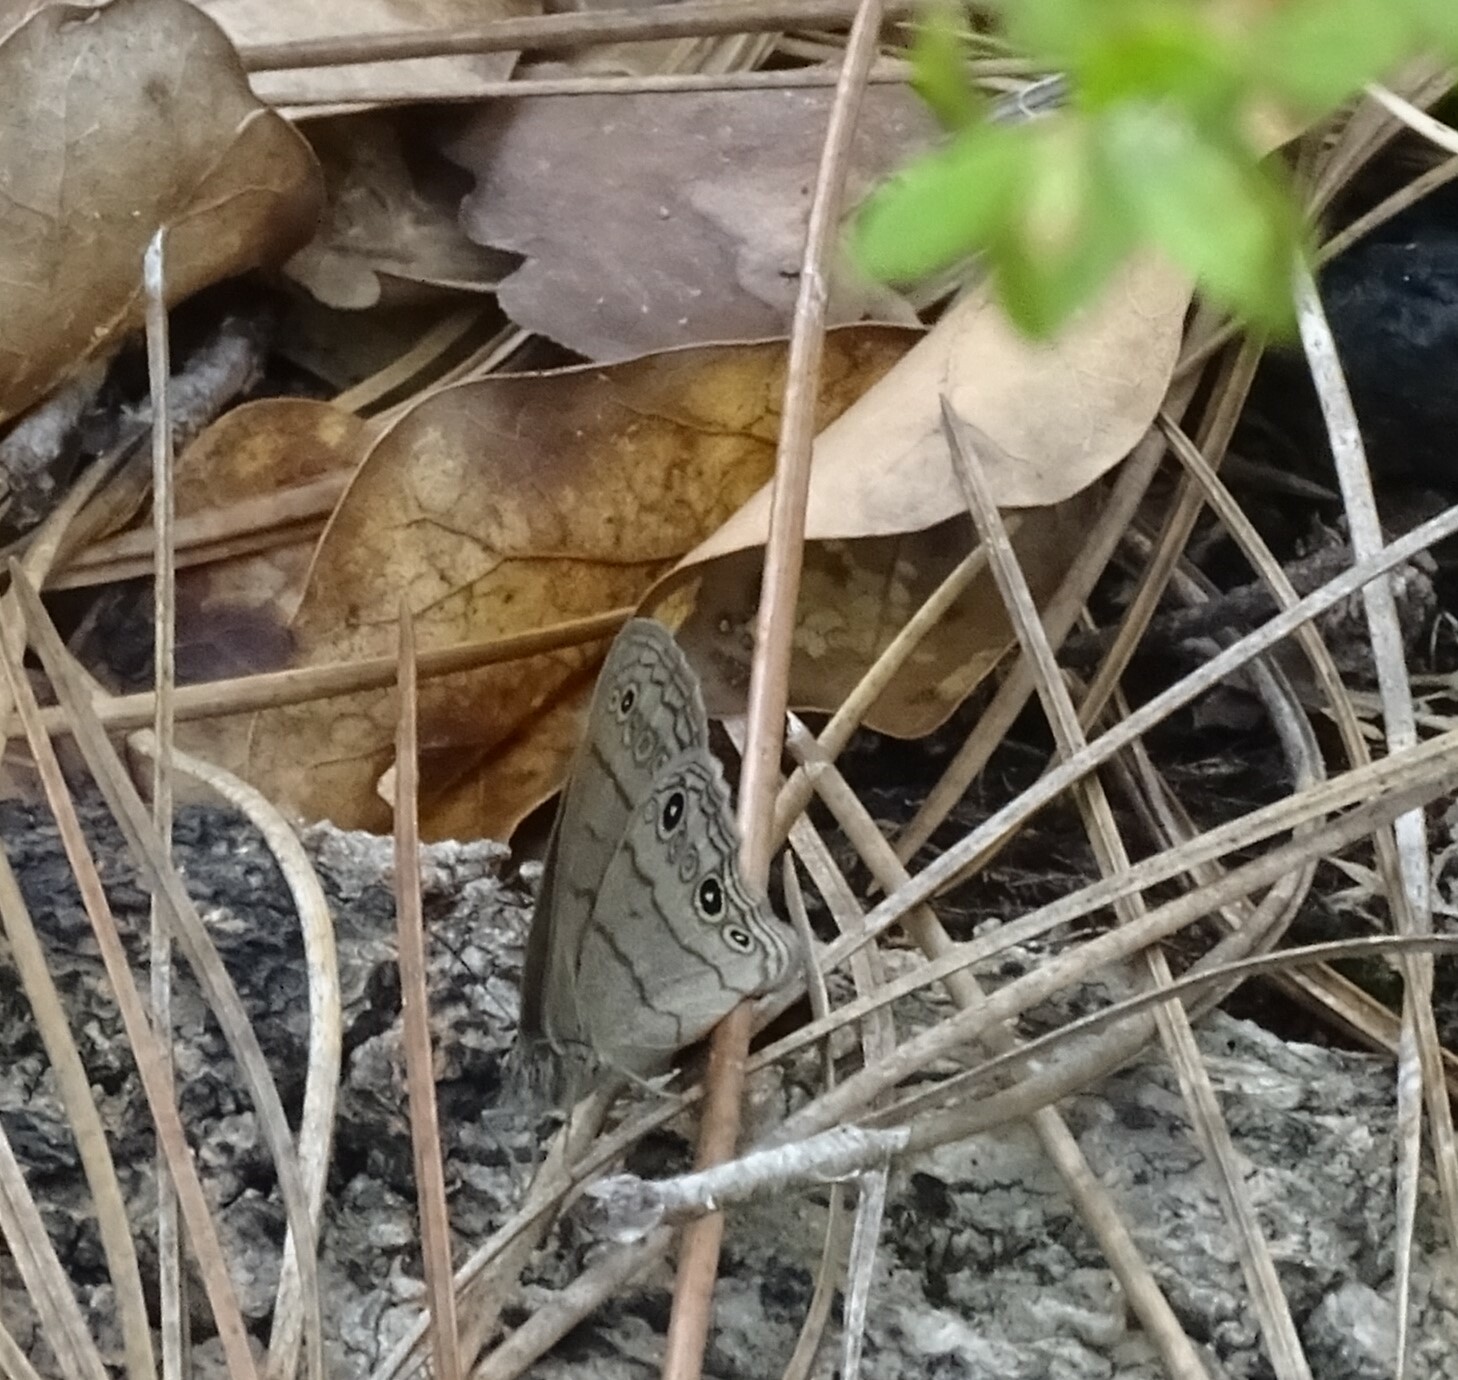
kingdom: Animalia
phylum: Arthropoda
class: Insecta
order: Lepidoptera
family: Nymphalidae
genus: Hermeuptychia
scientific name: Hermeuptychia hermes
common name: Hermes satyr
